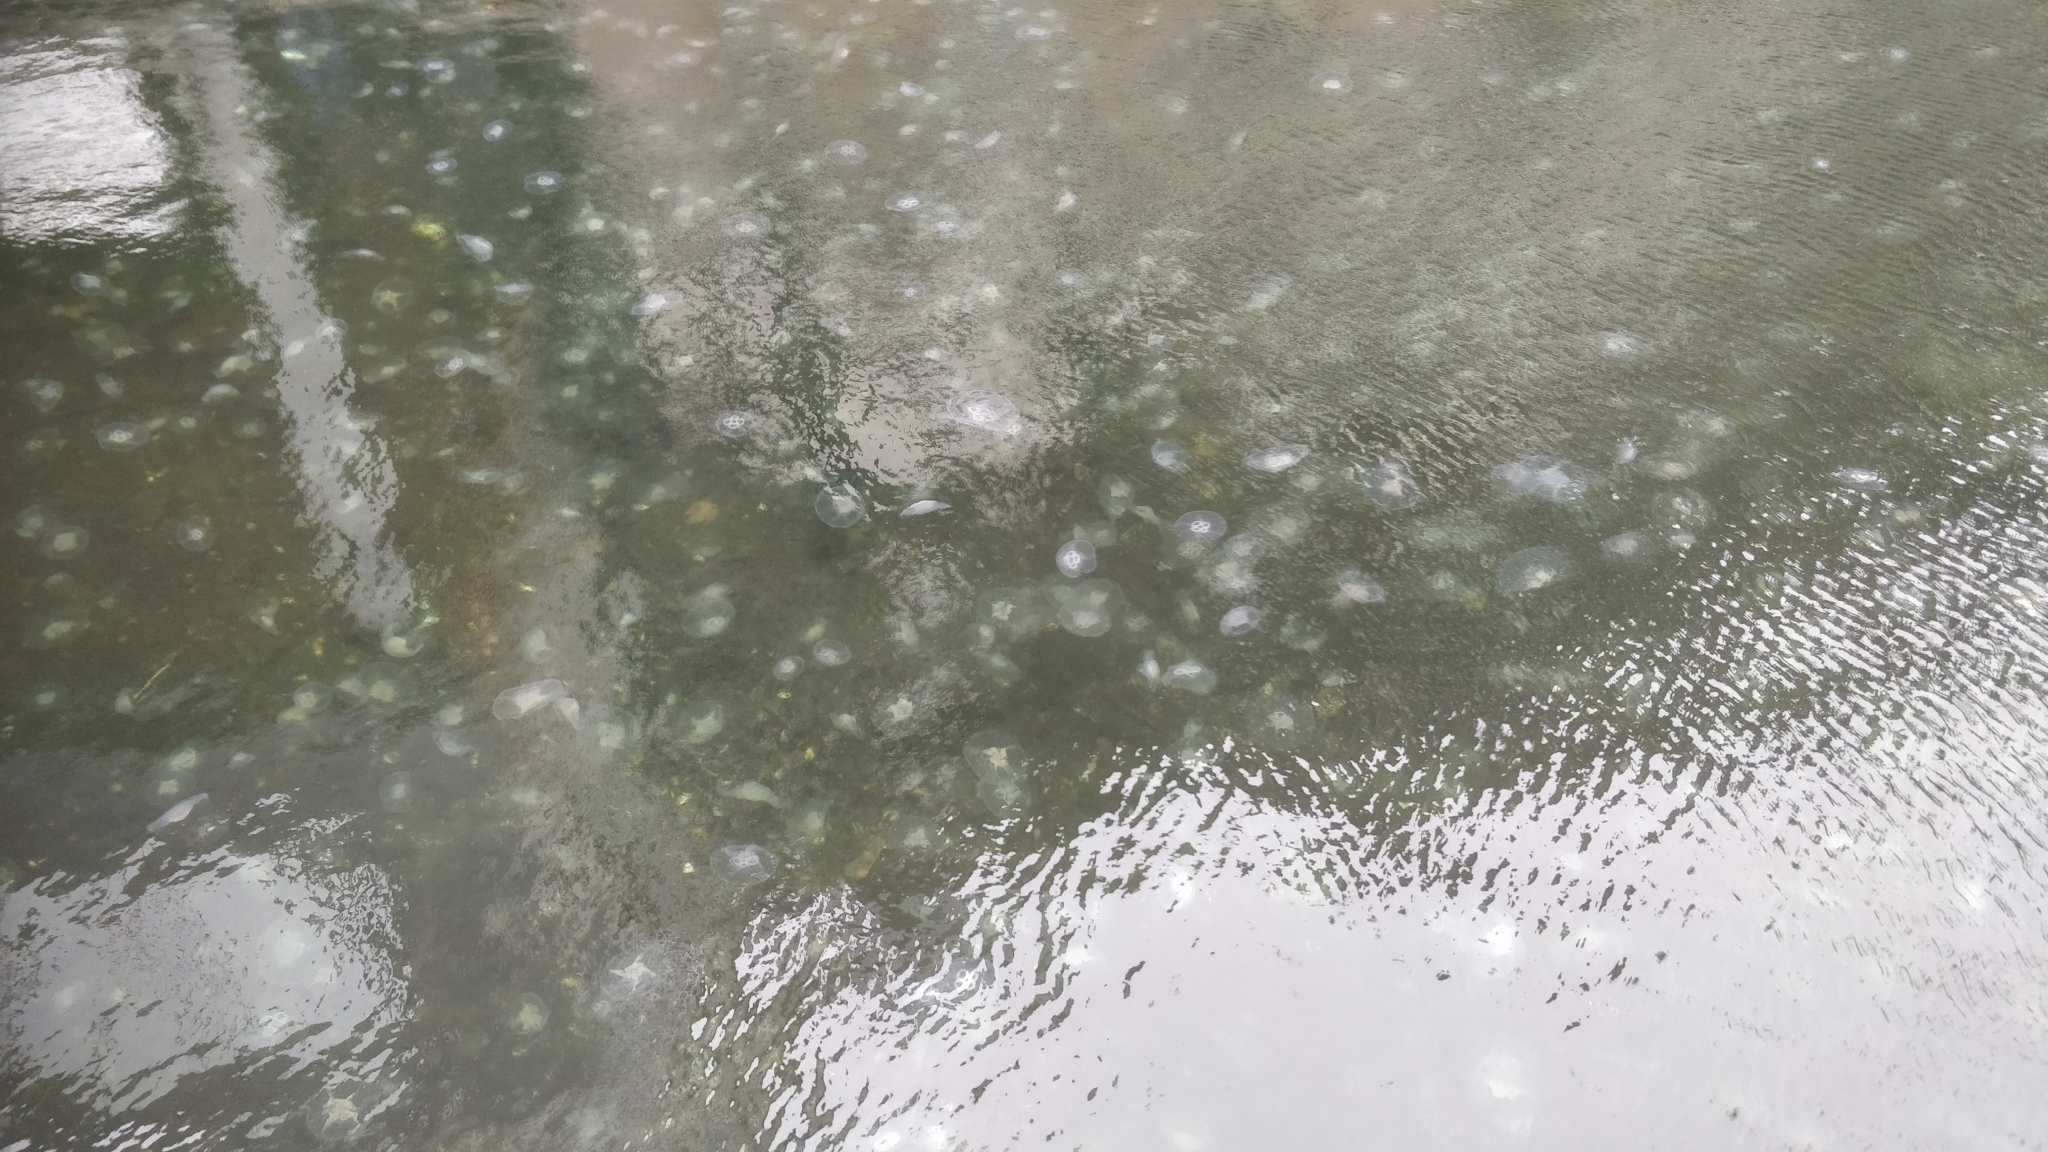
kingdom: Animalia
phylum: Cnidaria
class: Scyphozoa
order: Semaeostomeae
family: Ulmaridae
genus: Aurelia
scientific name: Aurelia aurita
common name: Moon jellyfish
